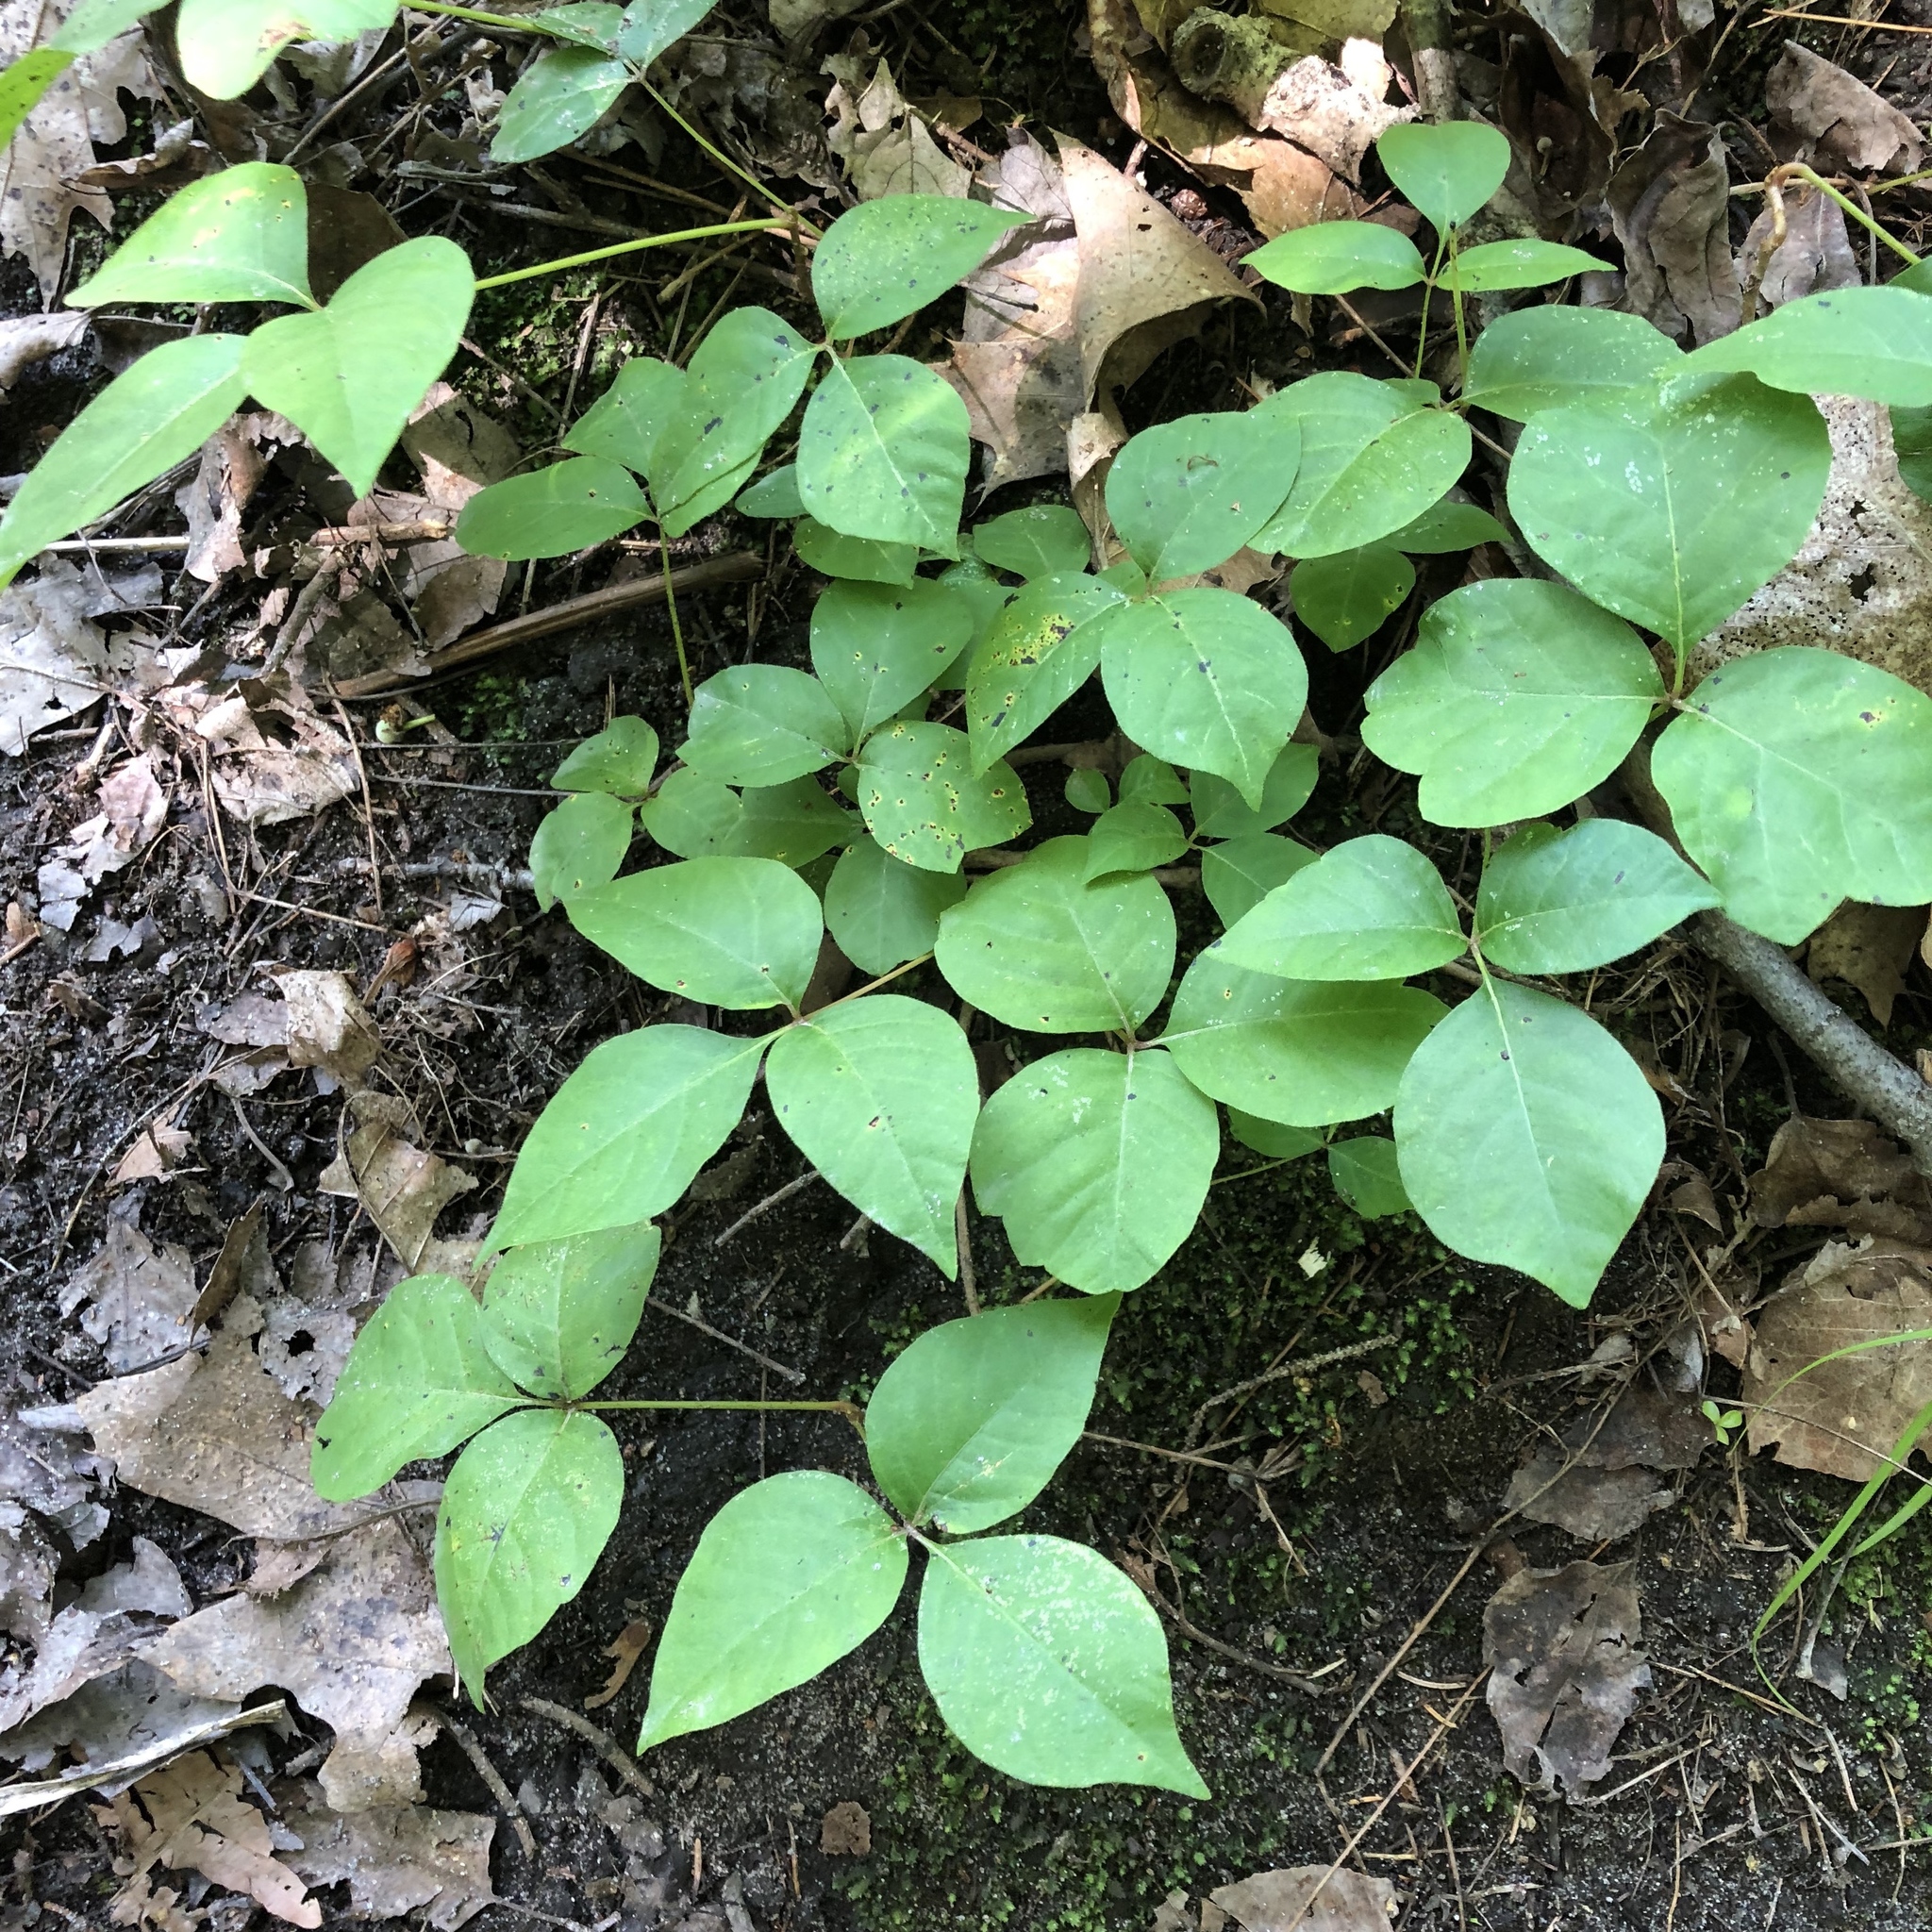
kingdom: Plantae
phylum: Tracheophyta
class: Magnoliopsida
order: Sapindales
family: Anacardiaceae
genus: Toxicodendron
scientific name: Toxicodendron rydbergii
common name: Rydberg's poison-ivy
